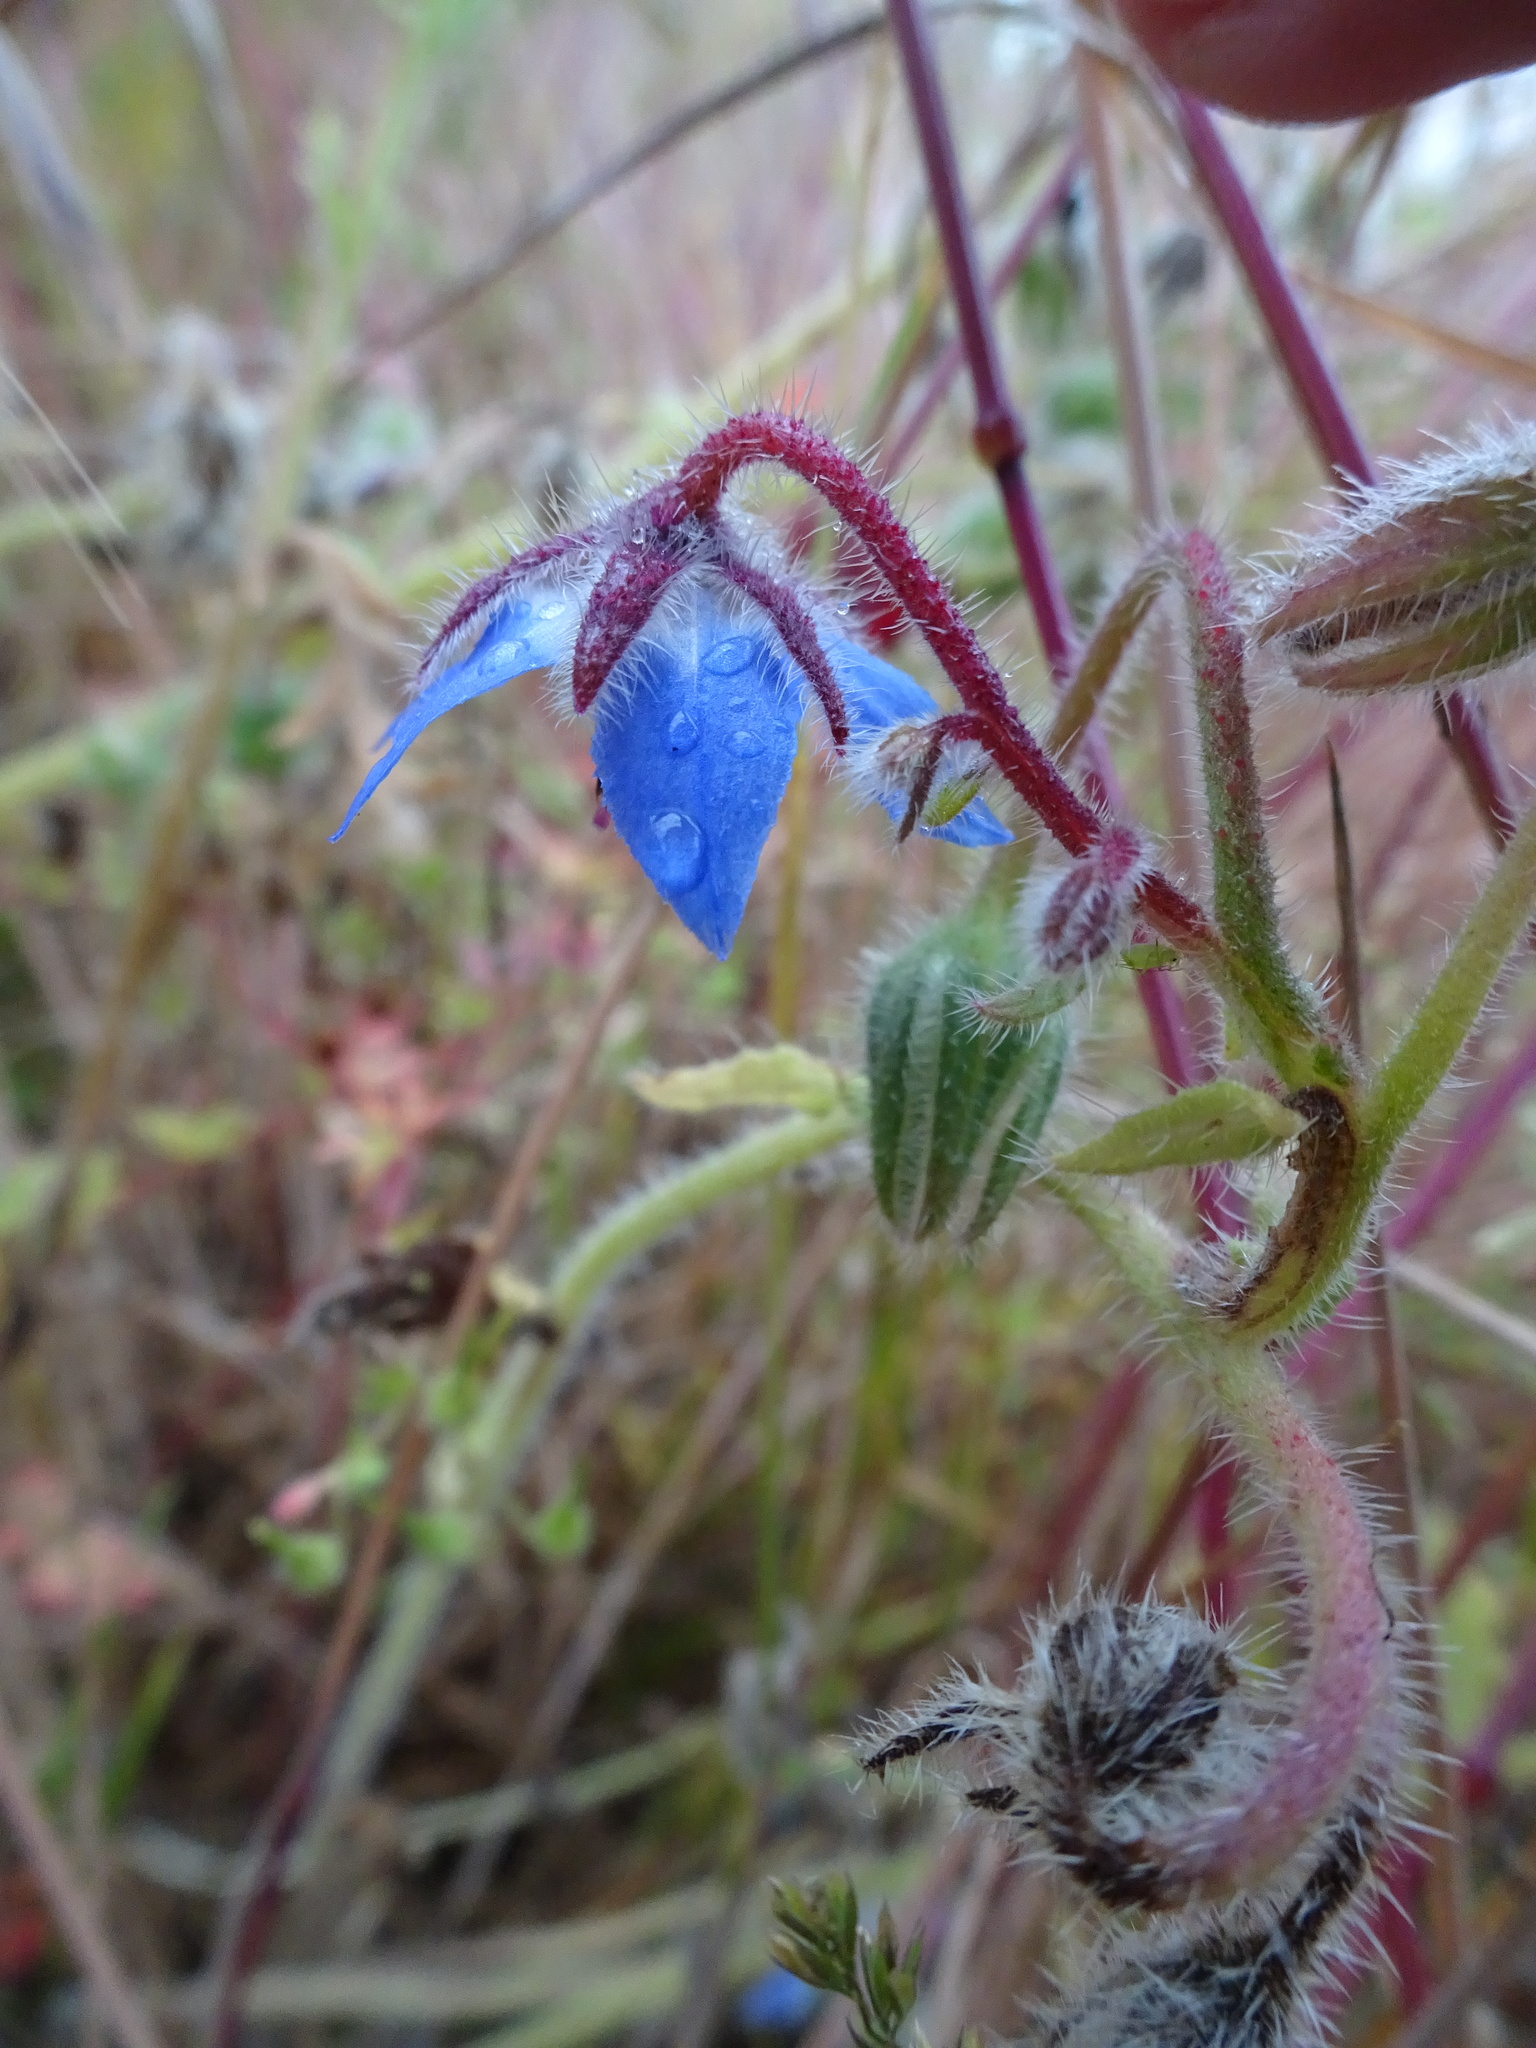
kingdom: Plantae
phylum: Tracheophyta
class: Magnoliopsida
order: Boraginales
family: Boraginaceae
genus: Borago
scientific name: Borago officinalis
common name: Borage
